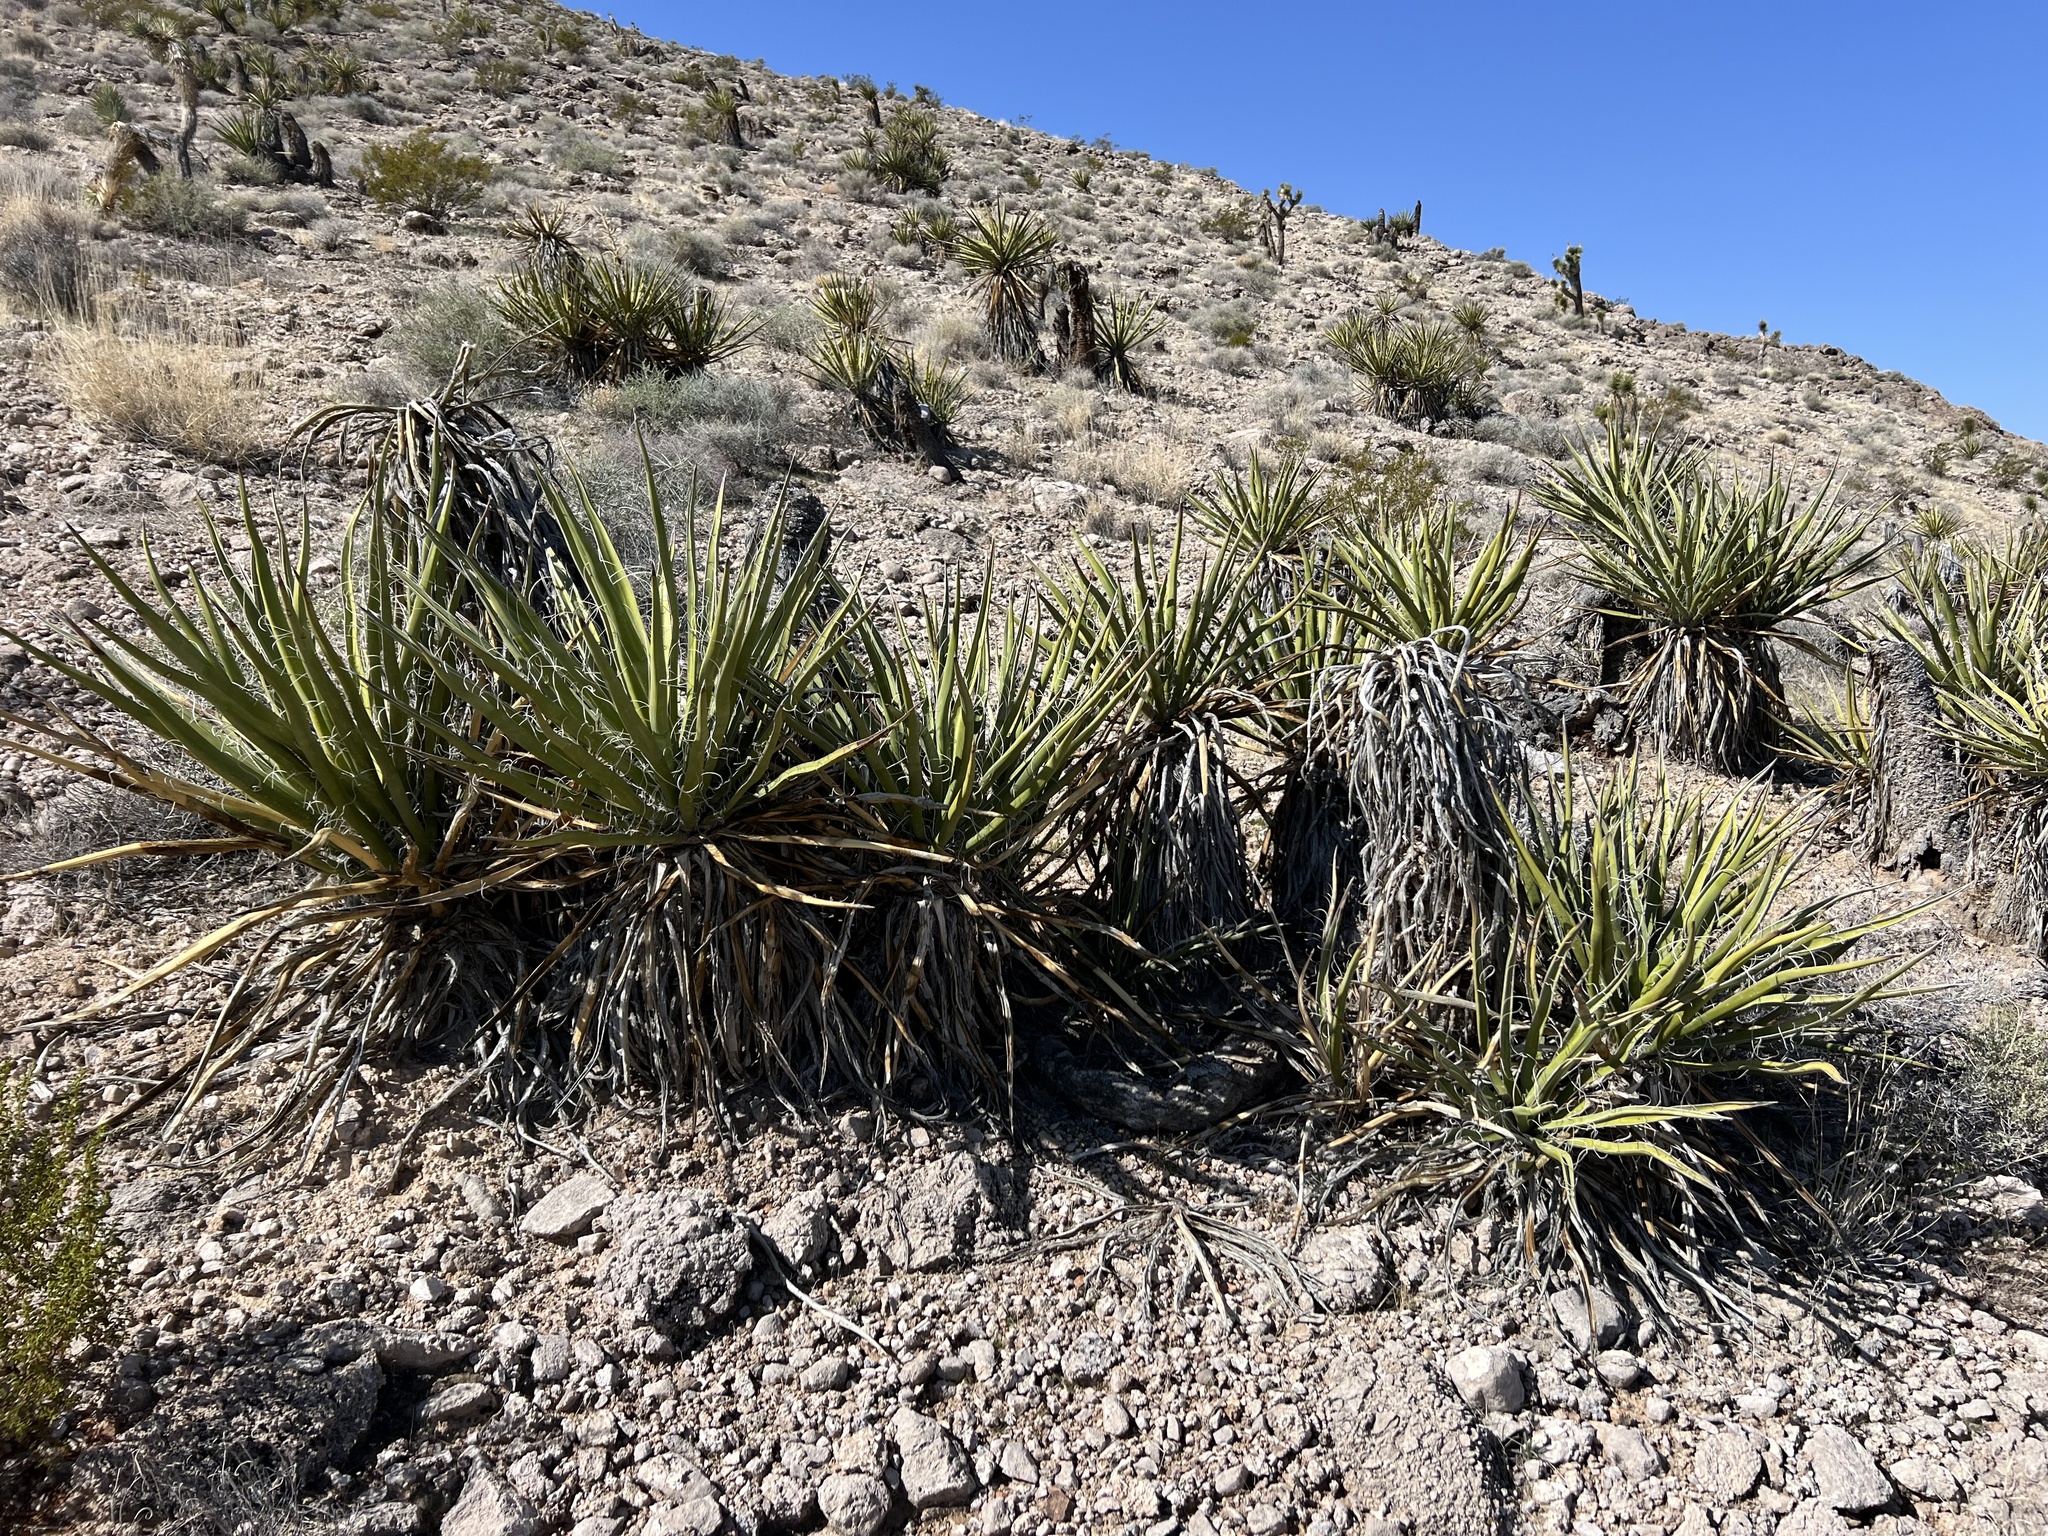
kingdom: Plantae
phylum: Tracheophyta
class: Liliopsida
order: Asparagales
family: Asparagaceae
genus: Yucca
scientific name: Yucca schidigera
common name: Mojave yucca
